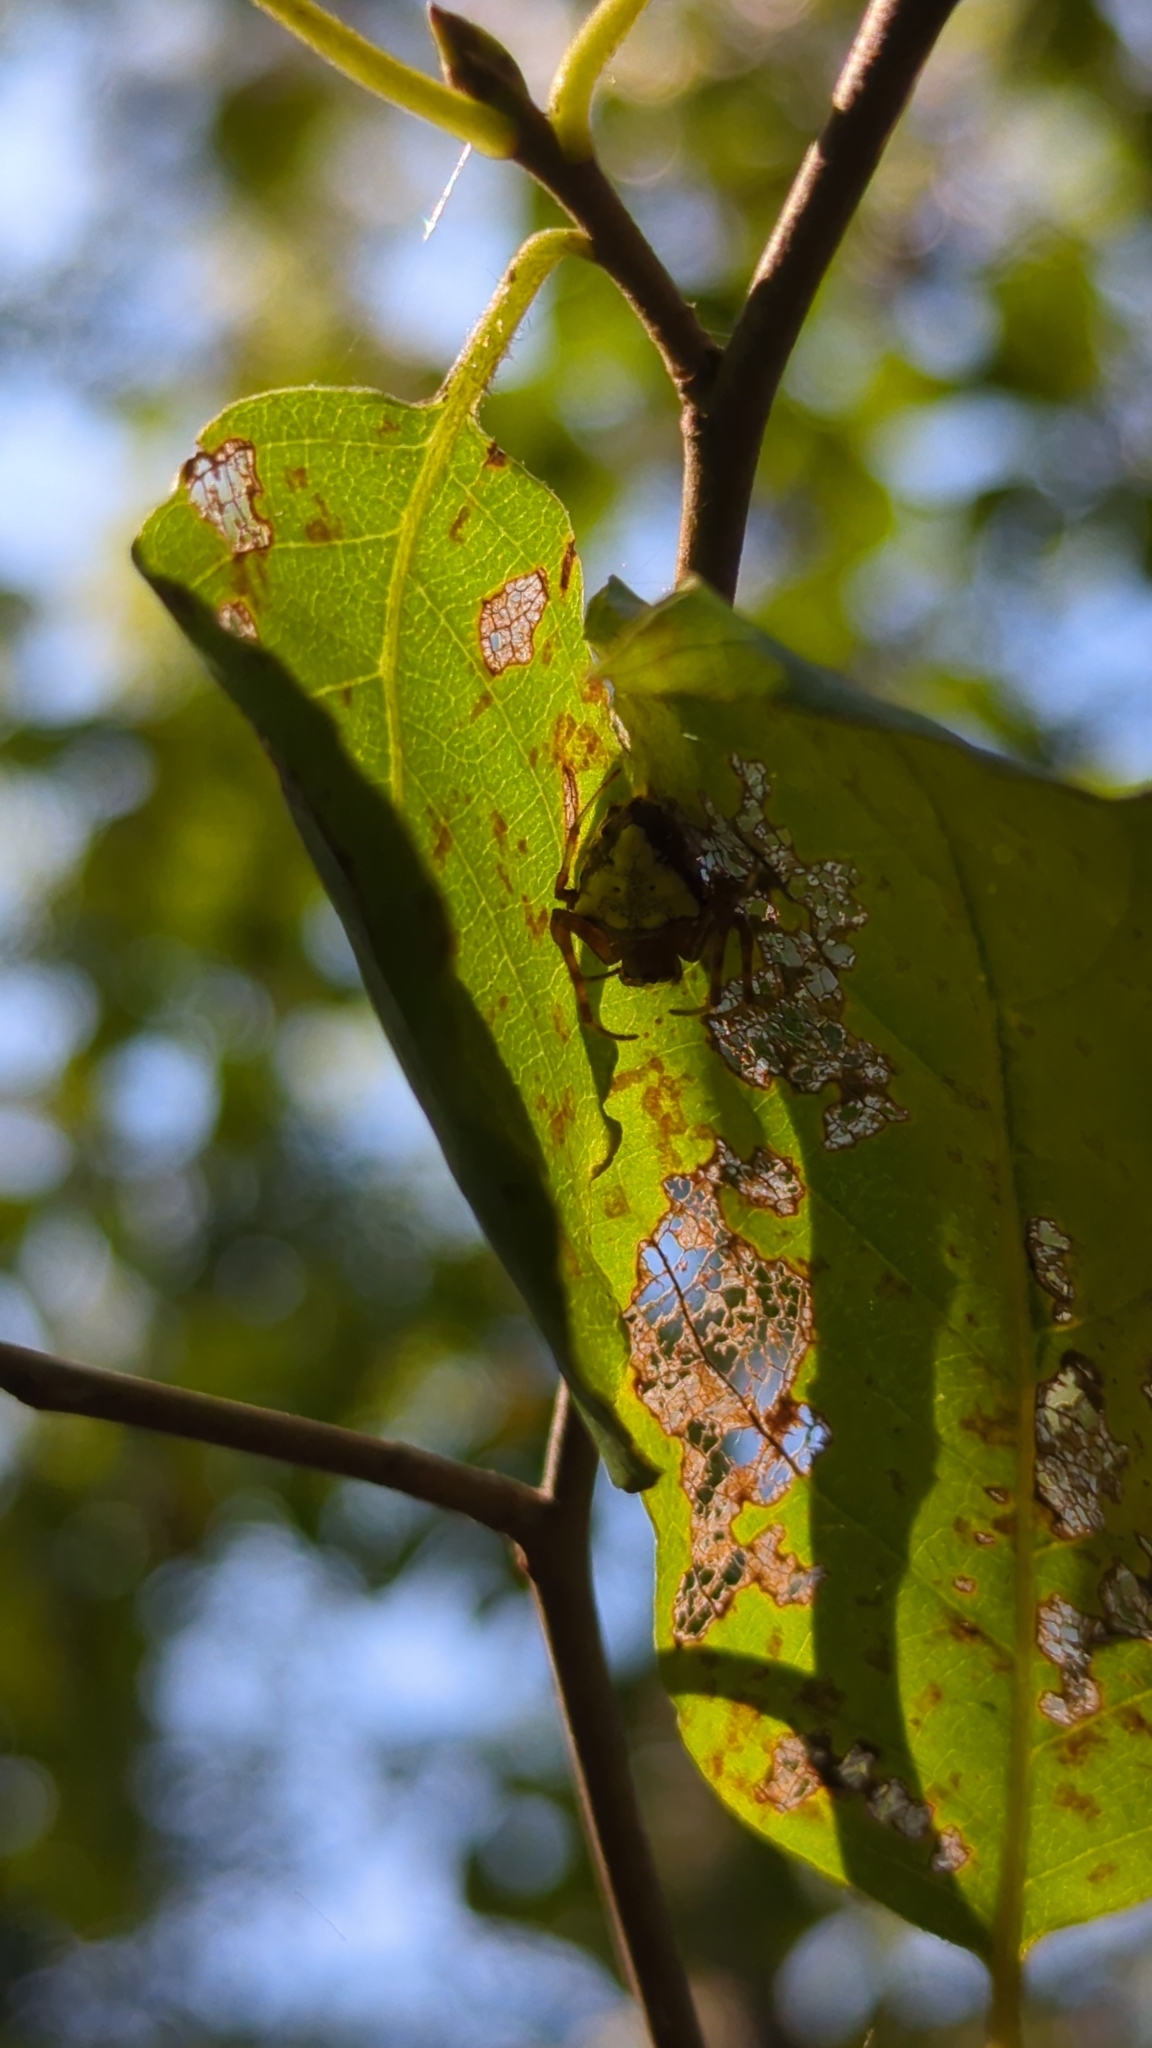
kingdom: Animalia
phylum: Arthropoda
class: Arachnida
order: Araneae
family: Araneidae
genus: Verrucosa
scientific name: Verrucosa arenata
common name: Orb weavers
